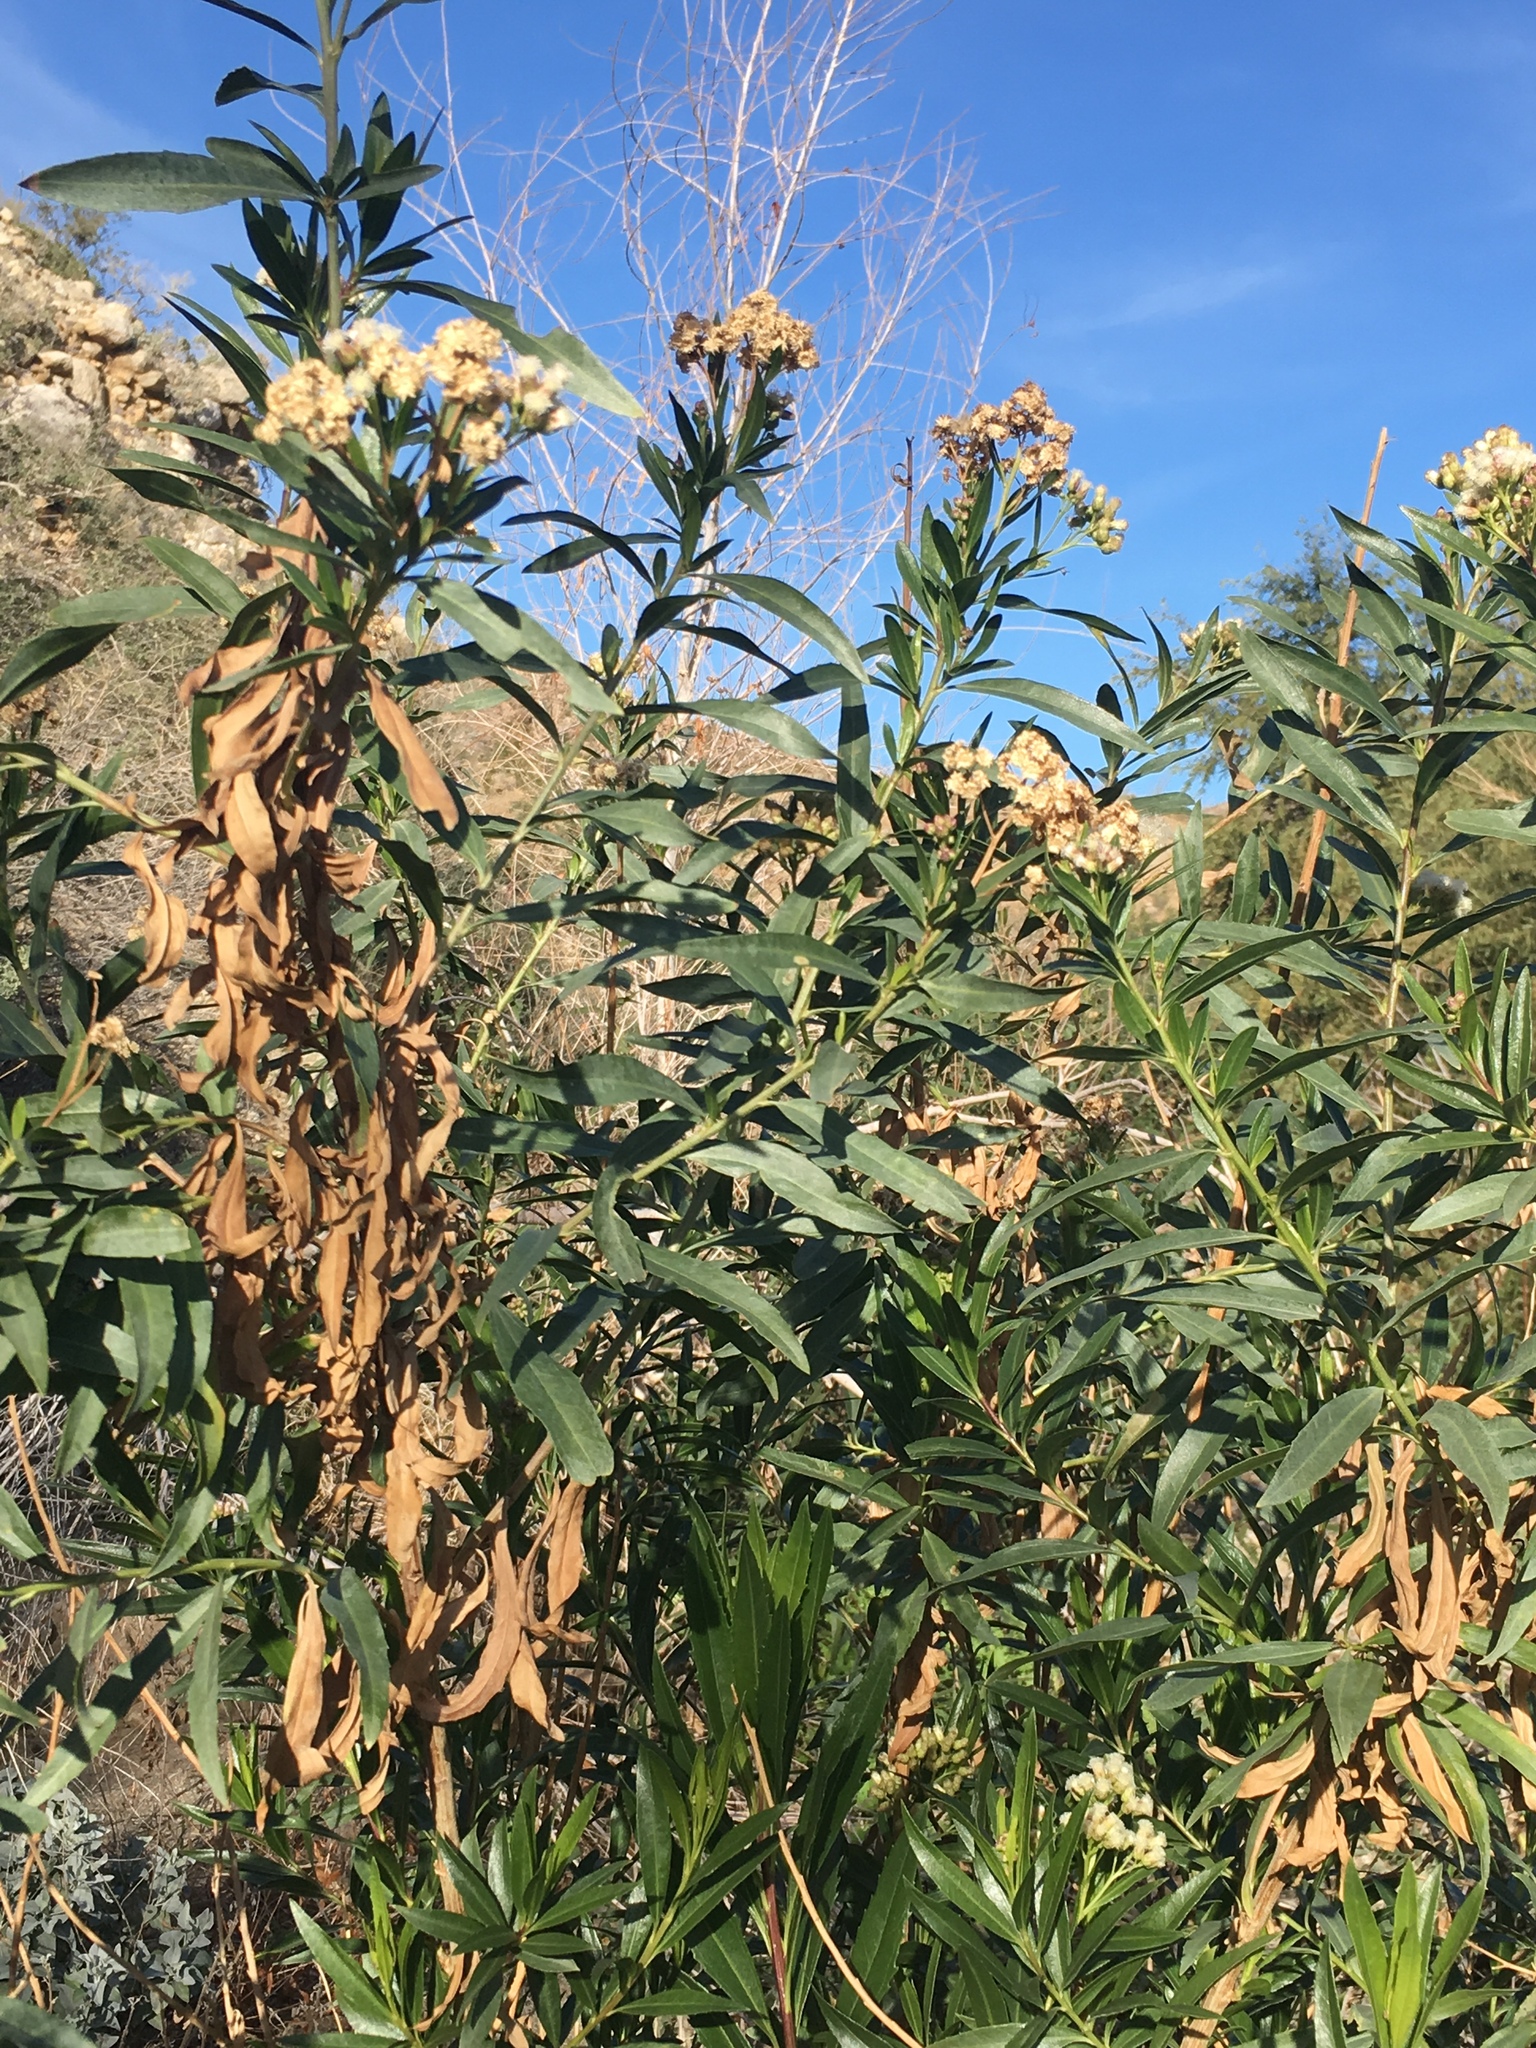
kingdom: Plantae
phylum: Tracheophyta
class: Magnoliopsida
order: Asterales
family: Asteraceae
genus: Baccharis
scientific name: Baccharis salicifolia
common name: Sticky baccharis
